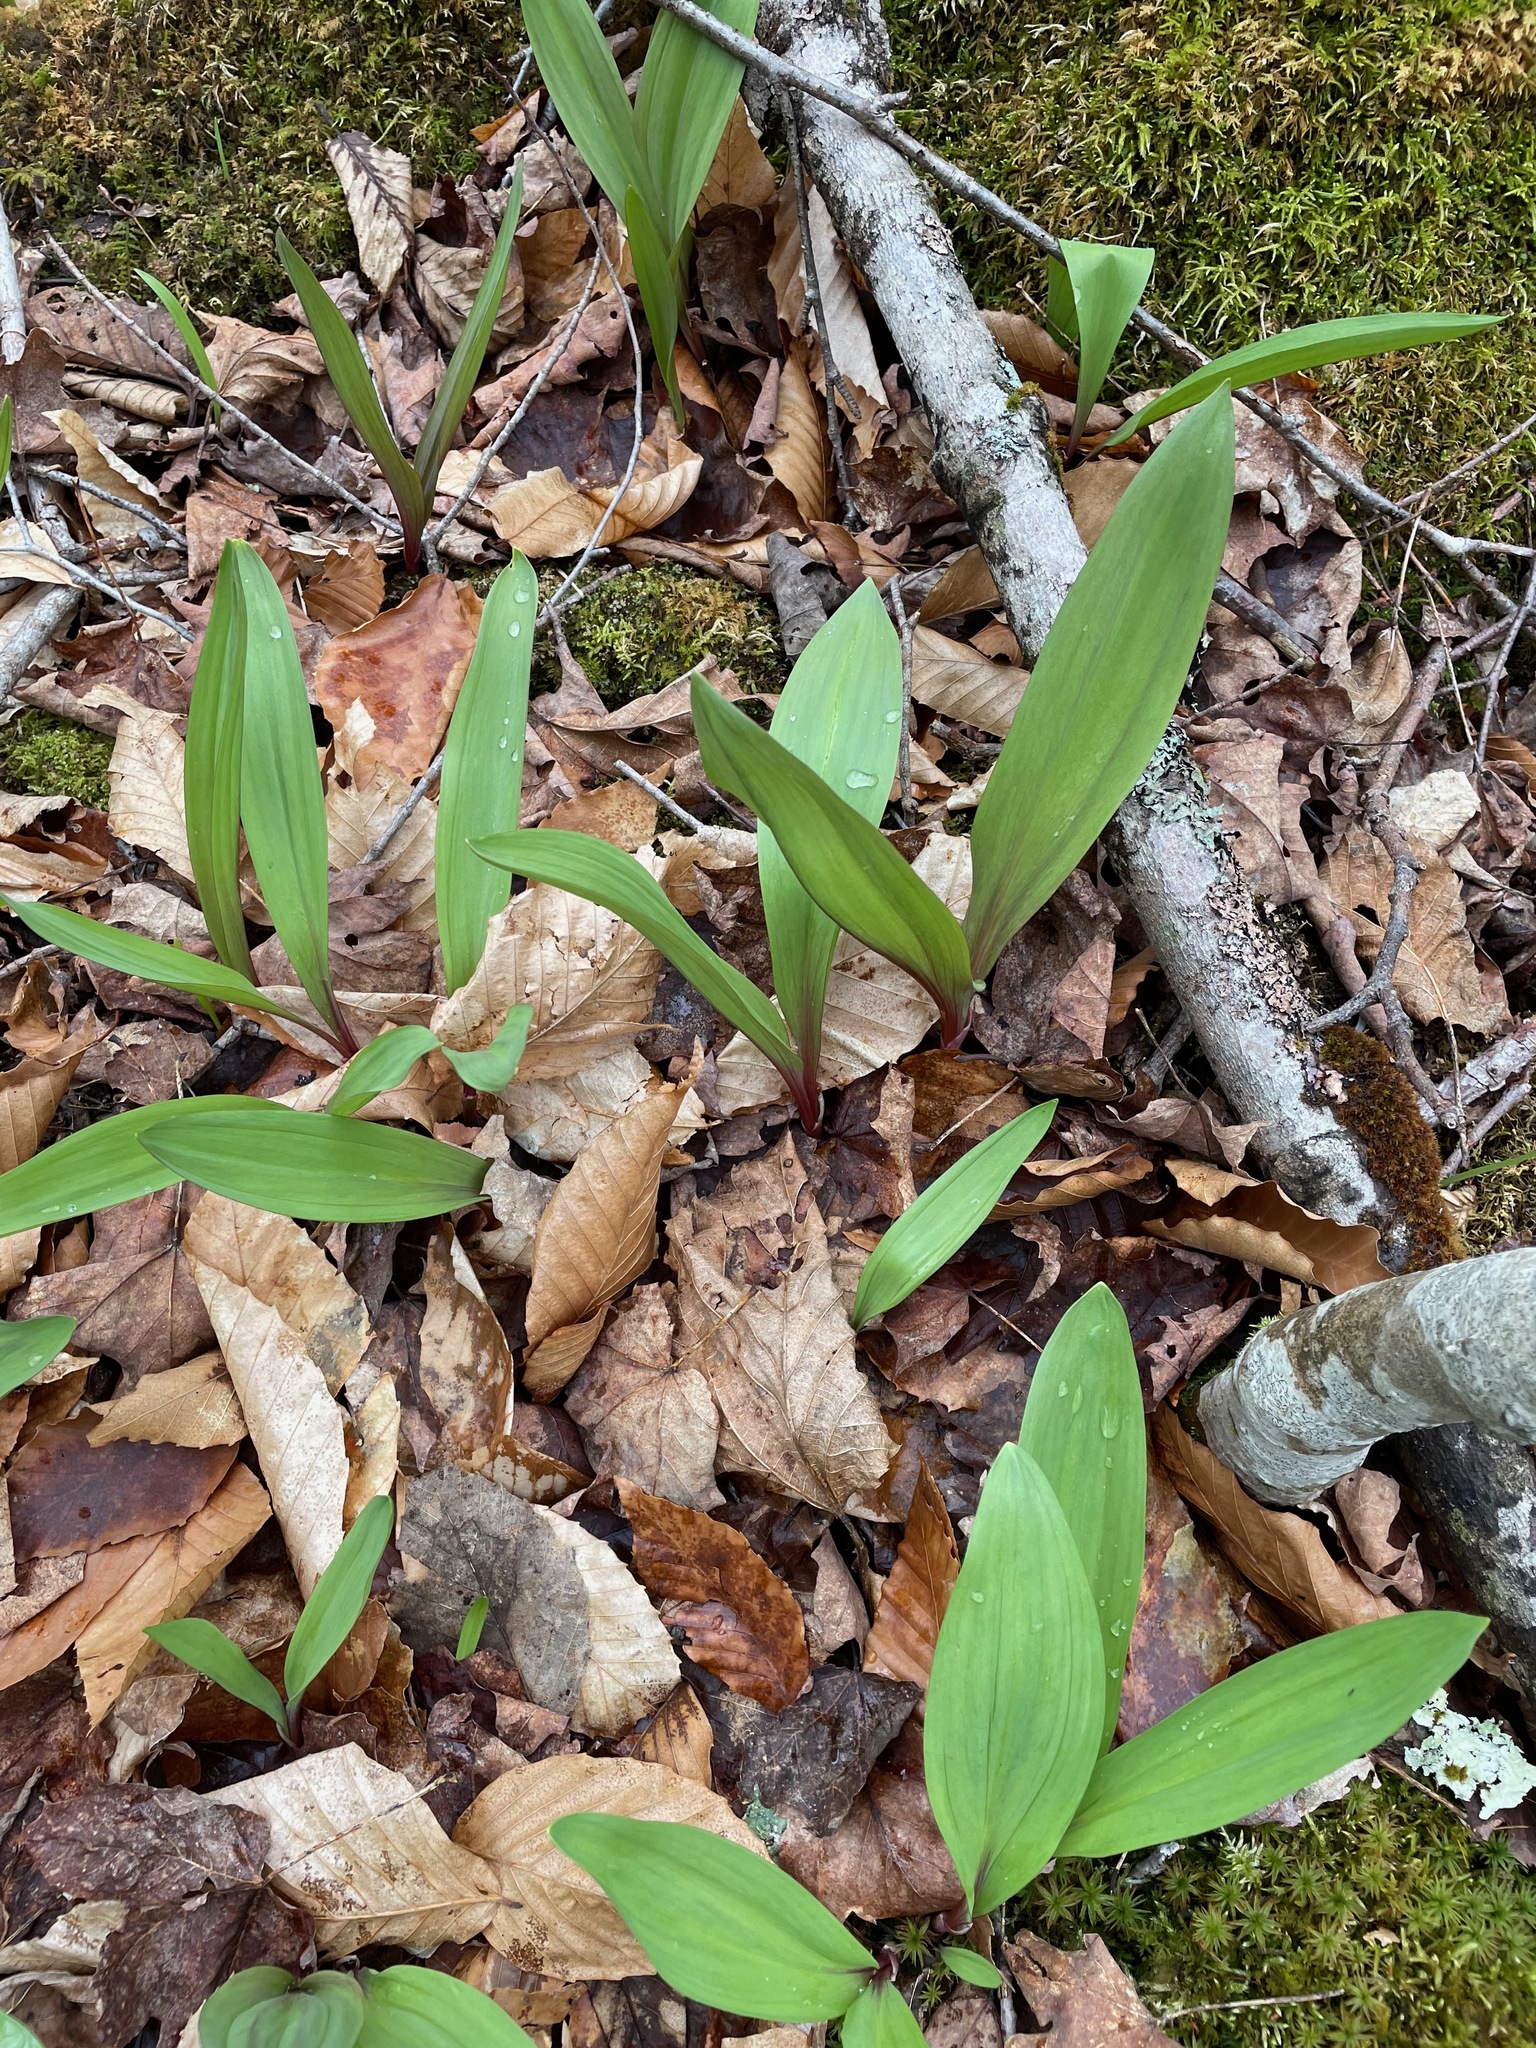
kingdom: Plantae
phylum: Tracheophyta
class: Liliopsida
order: Asparagales
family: Amaryllidaceae
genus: Allium
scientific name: Allium tricoccum
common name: Ramp
